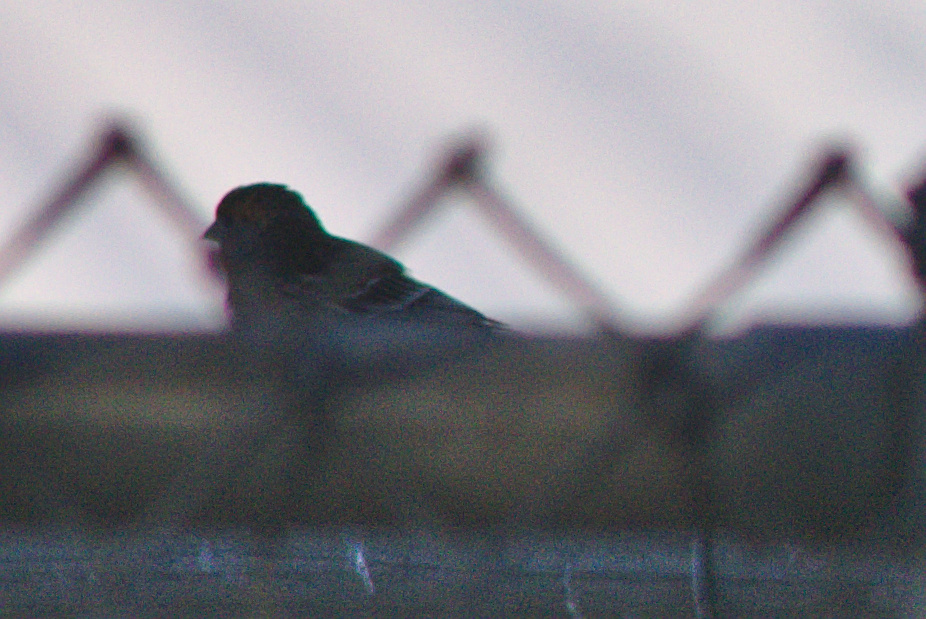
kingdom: Animalia
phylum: Chordata
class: Aves
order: Passeriformes
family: Fringillidae
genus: Haemorhous
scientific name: Haemorhous mexicanus
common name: House finch
